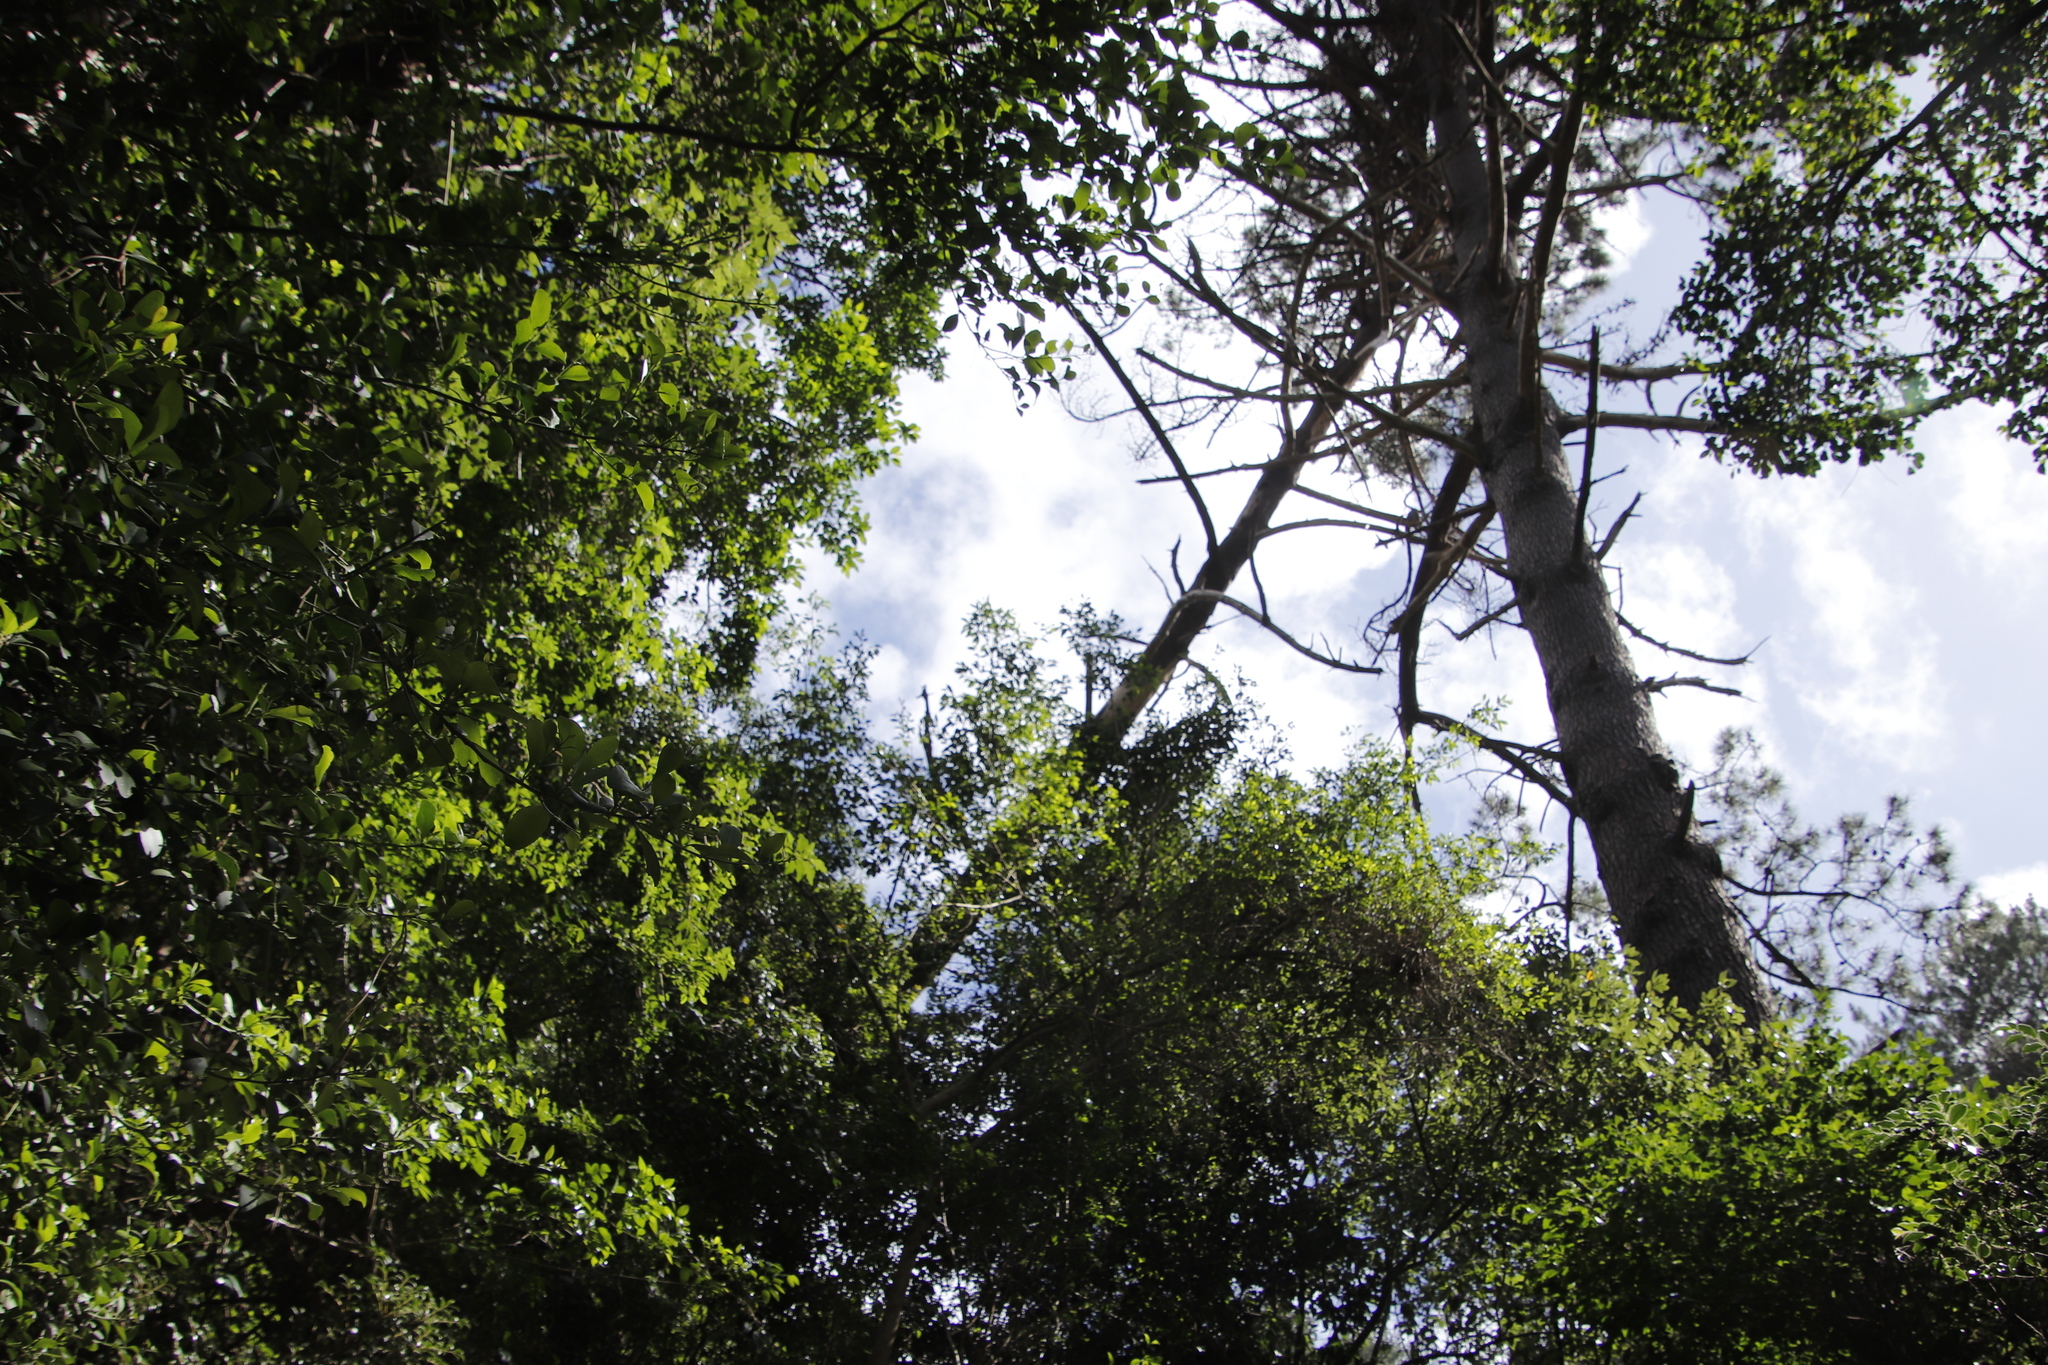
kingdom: Plantae
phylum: Tracheophyta
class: Magnoliopsida
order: Malvales
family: Malvaceae
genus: Grewia
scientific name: Grewia occidentalis
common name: Crossberry
